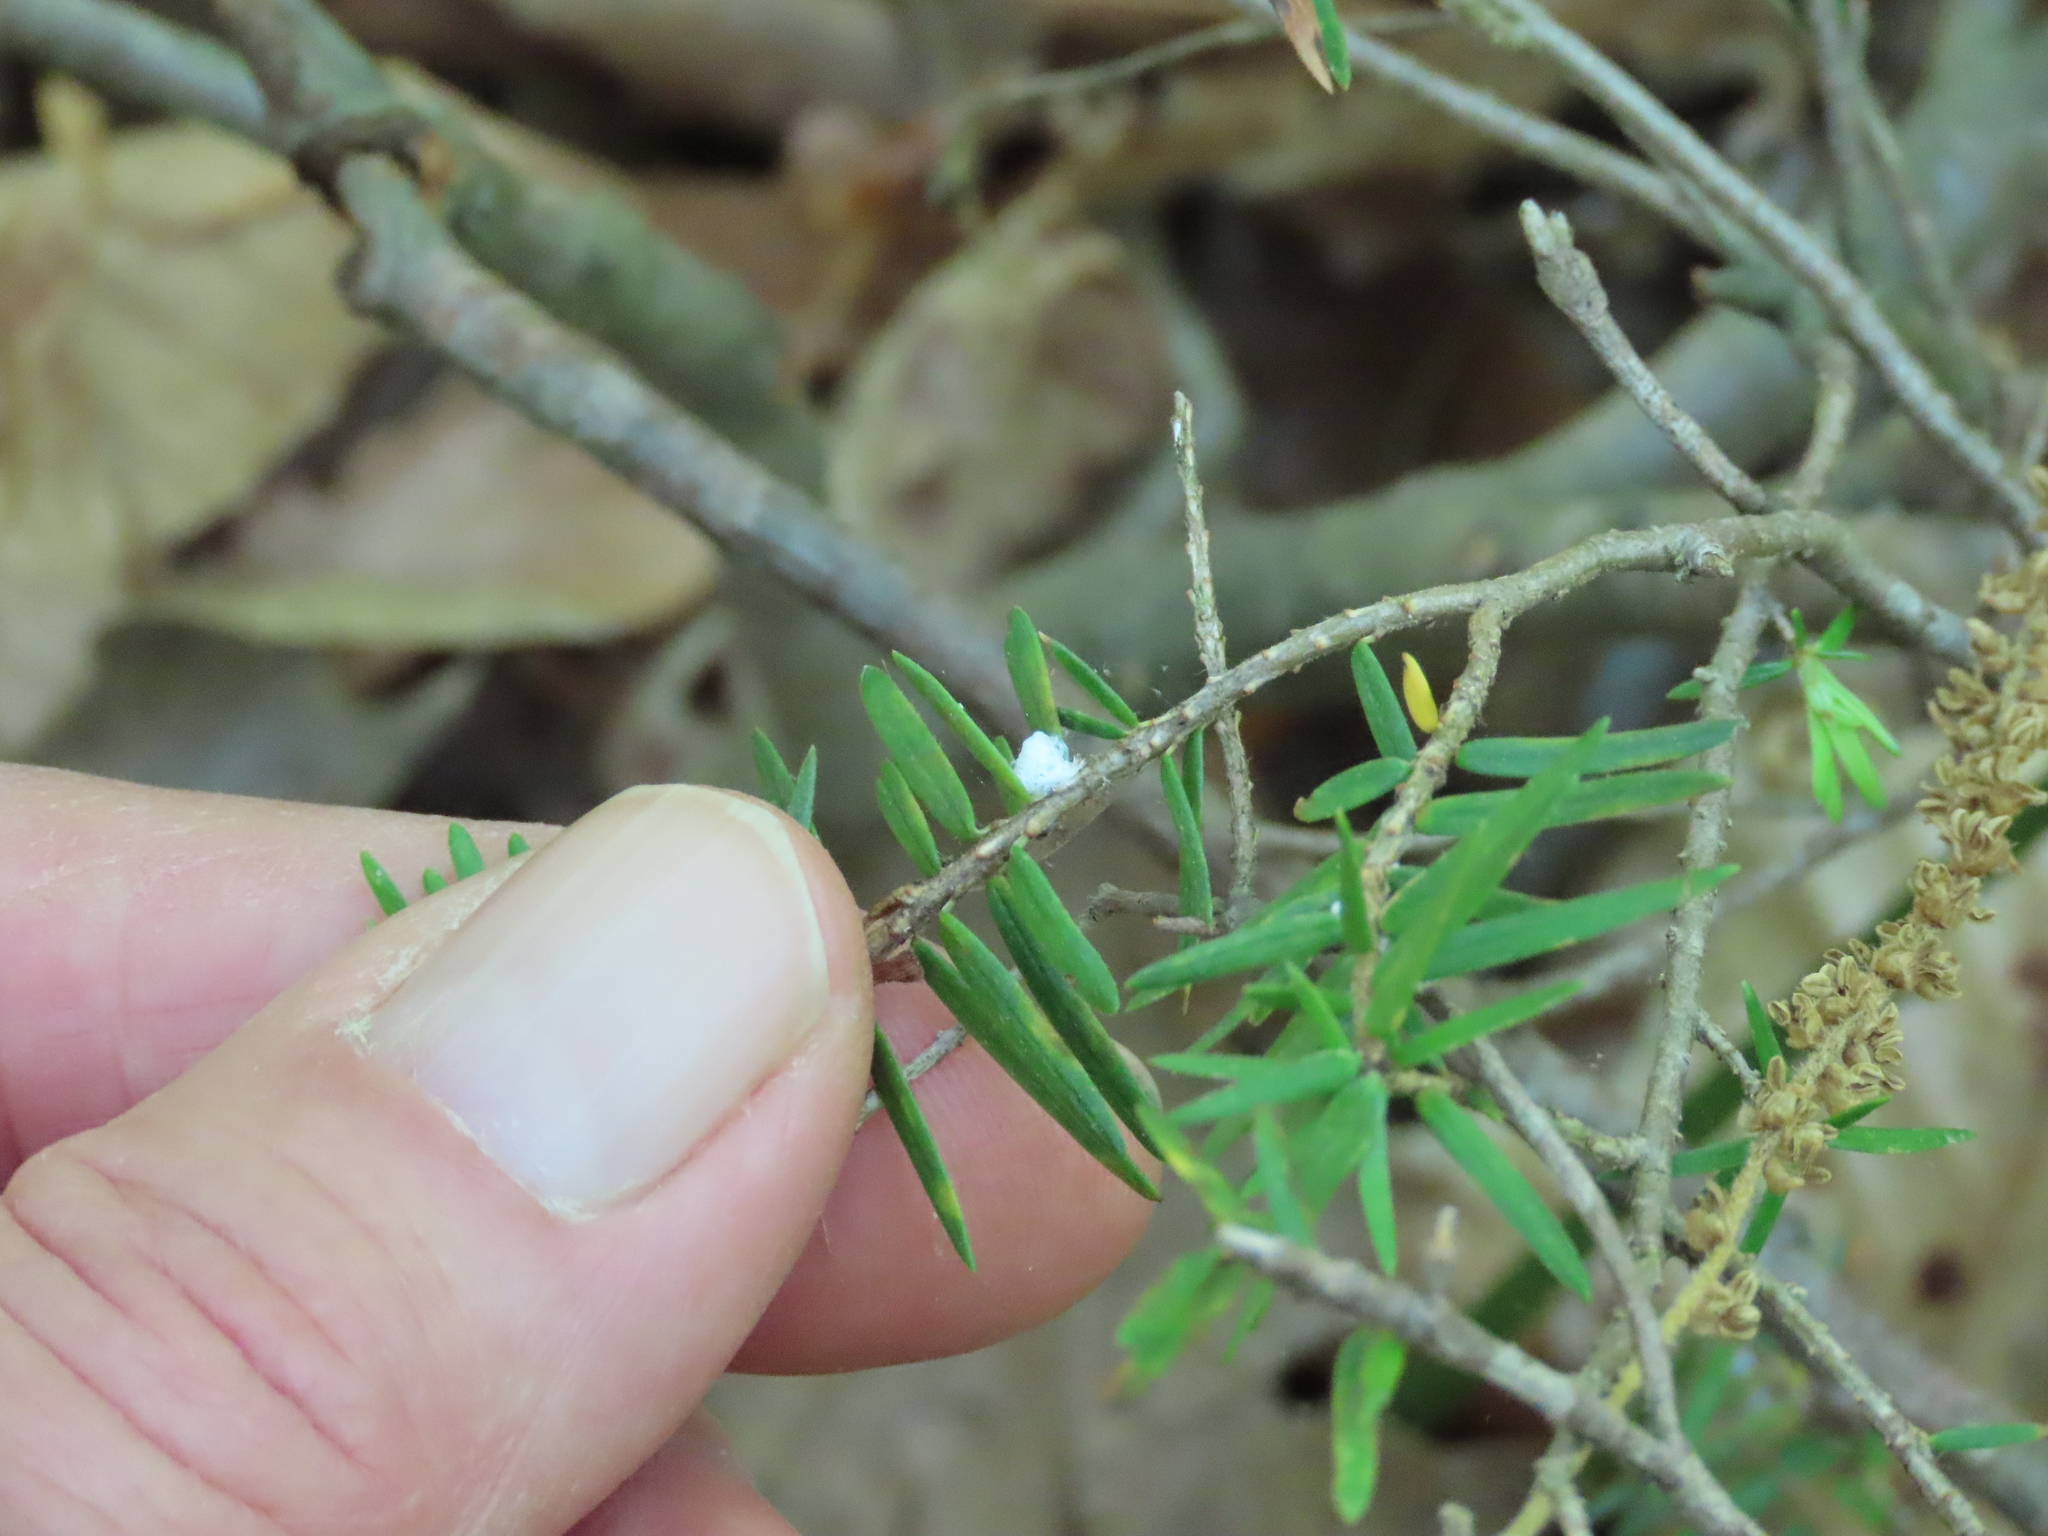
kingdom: Animalia
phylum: Arthropoda
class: Insecta
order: Hemiptera
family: Adelgidae
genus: Adelges
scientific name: Adelges tsugae
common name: Hemlock woolly adelgid
